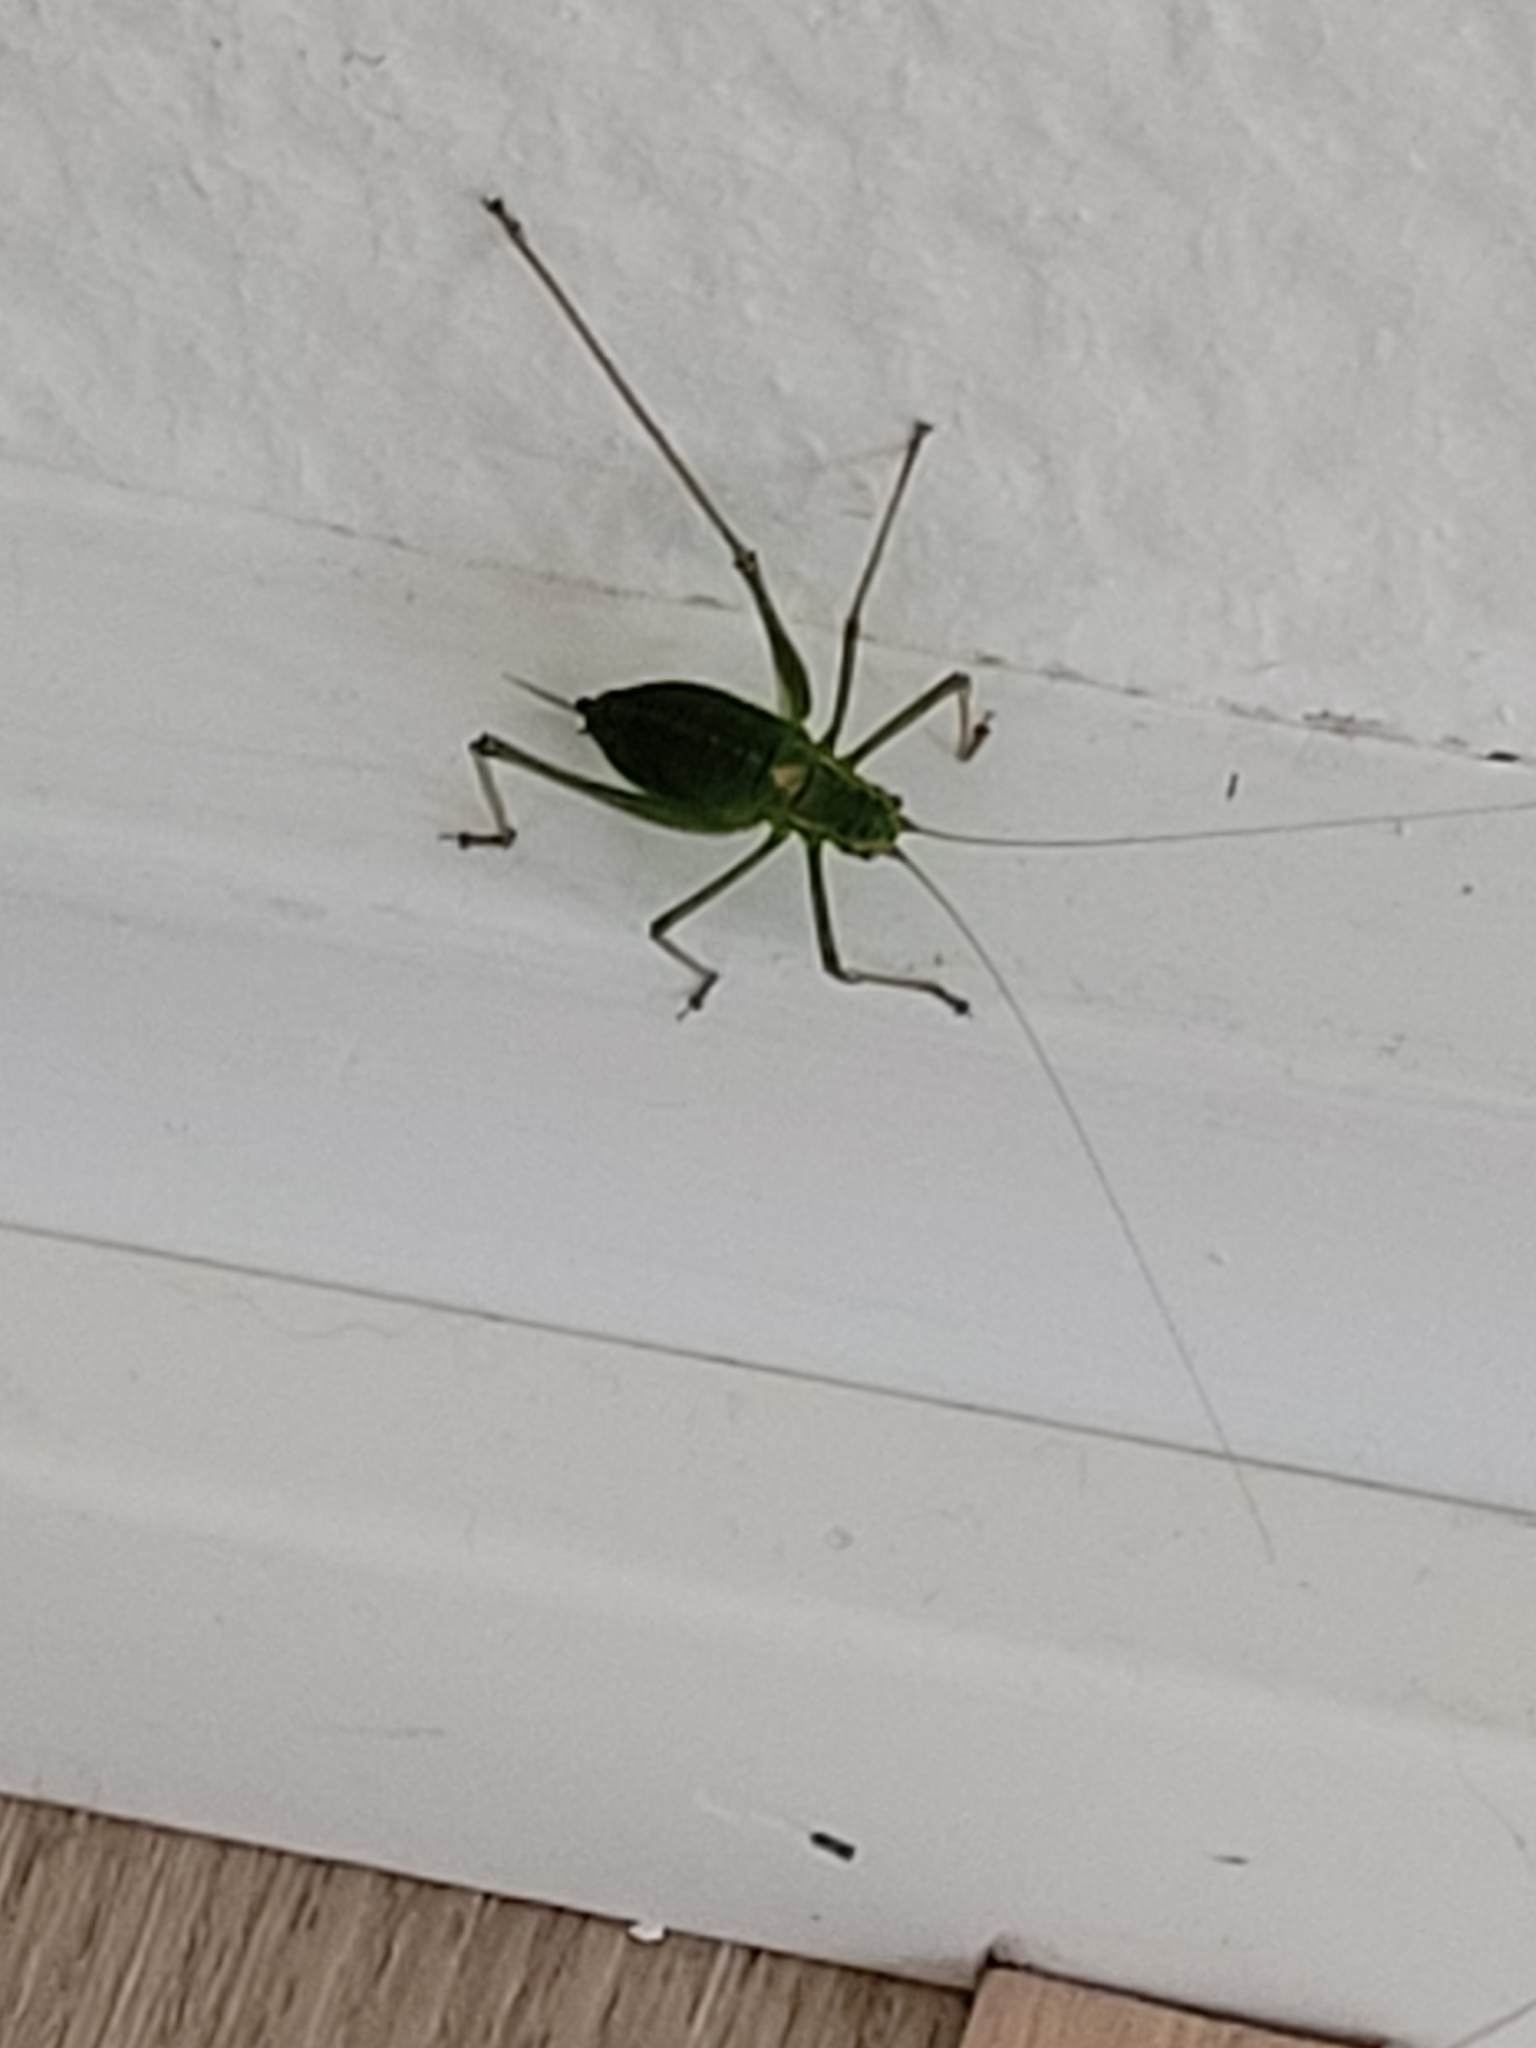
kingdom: Animalia
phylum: Arthropoda
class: Insecta
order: Orthoptera
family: Tettigoniidae
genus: Leptophyes
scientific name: Leptophyes punctatissima
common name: Speckled bush-cricket
